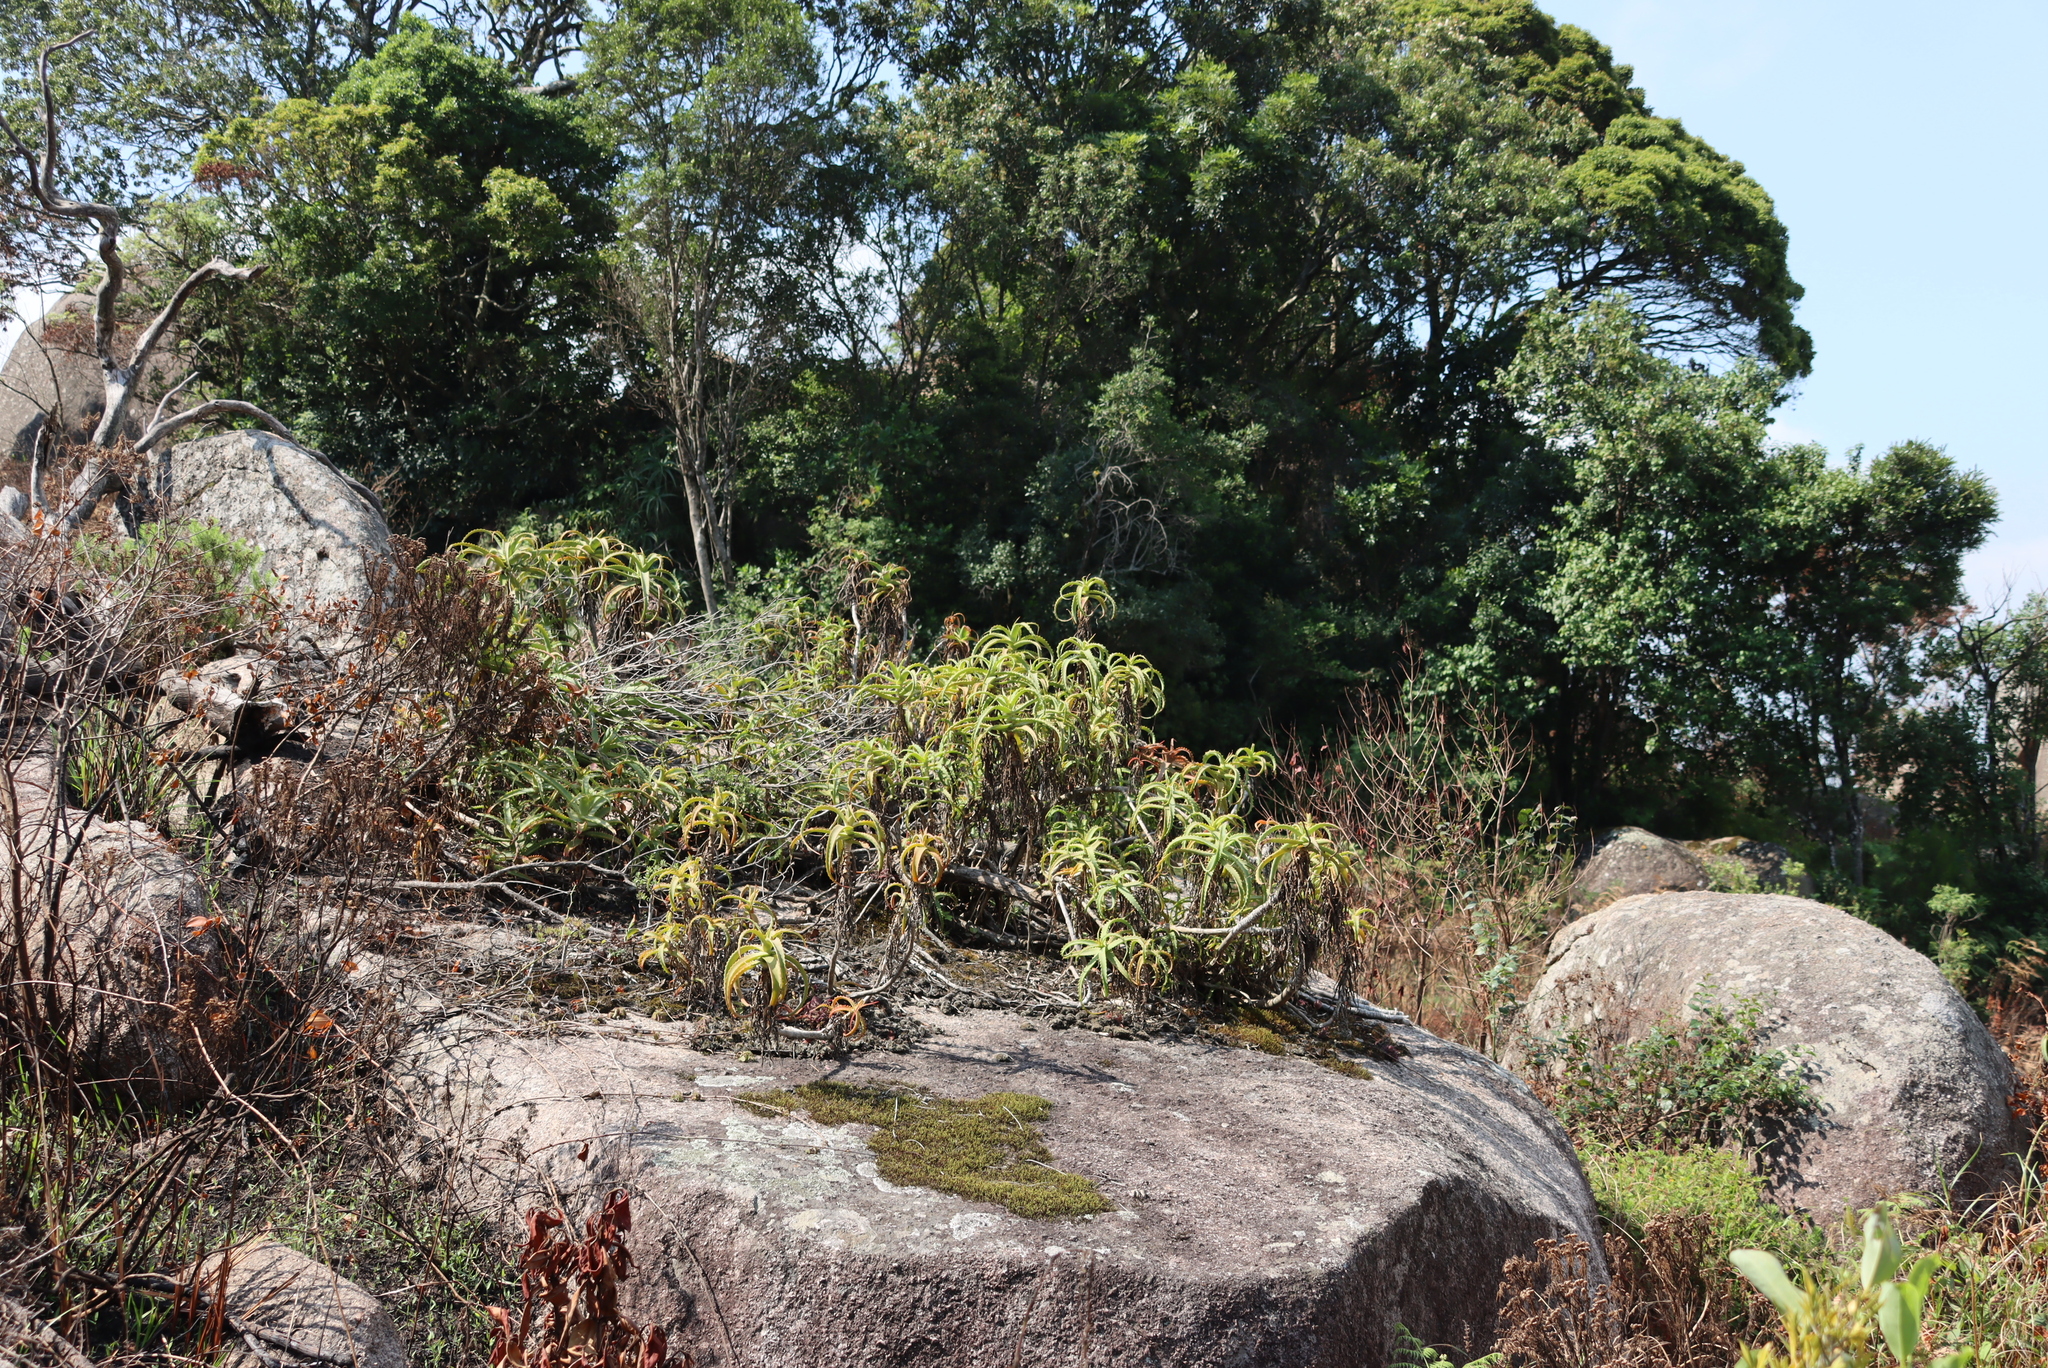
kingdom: Plantae
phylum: Tracheophyta
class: Liliopsida
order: Asparagales
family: Asphodelaceae
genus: Aloe
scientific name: Aloe arborescens
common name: Candelabra aloe
